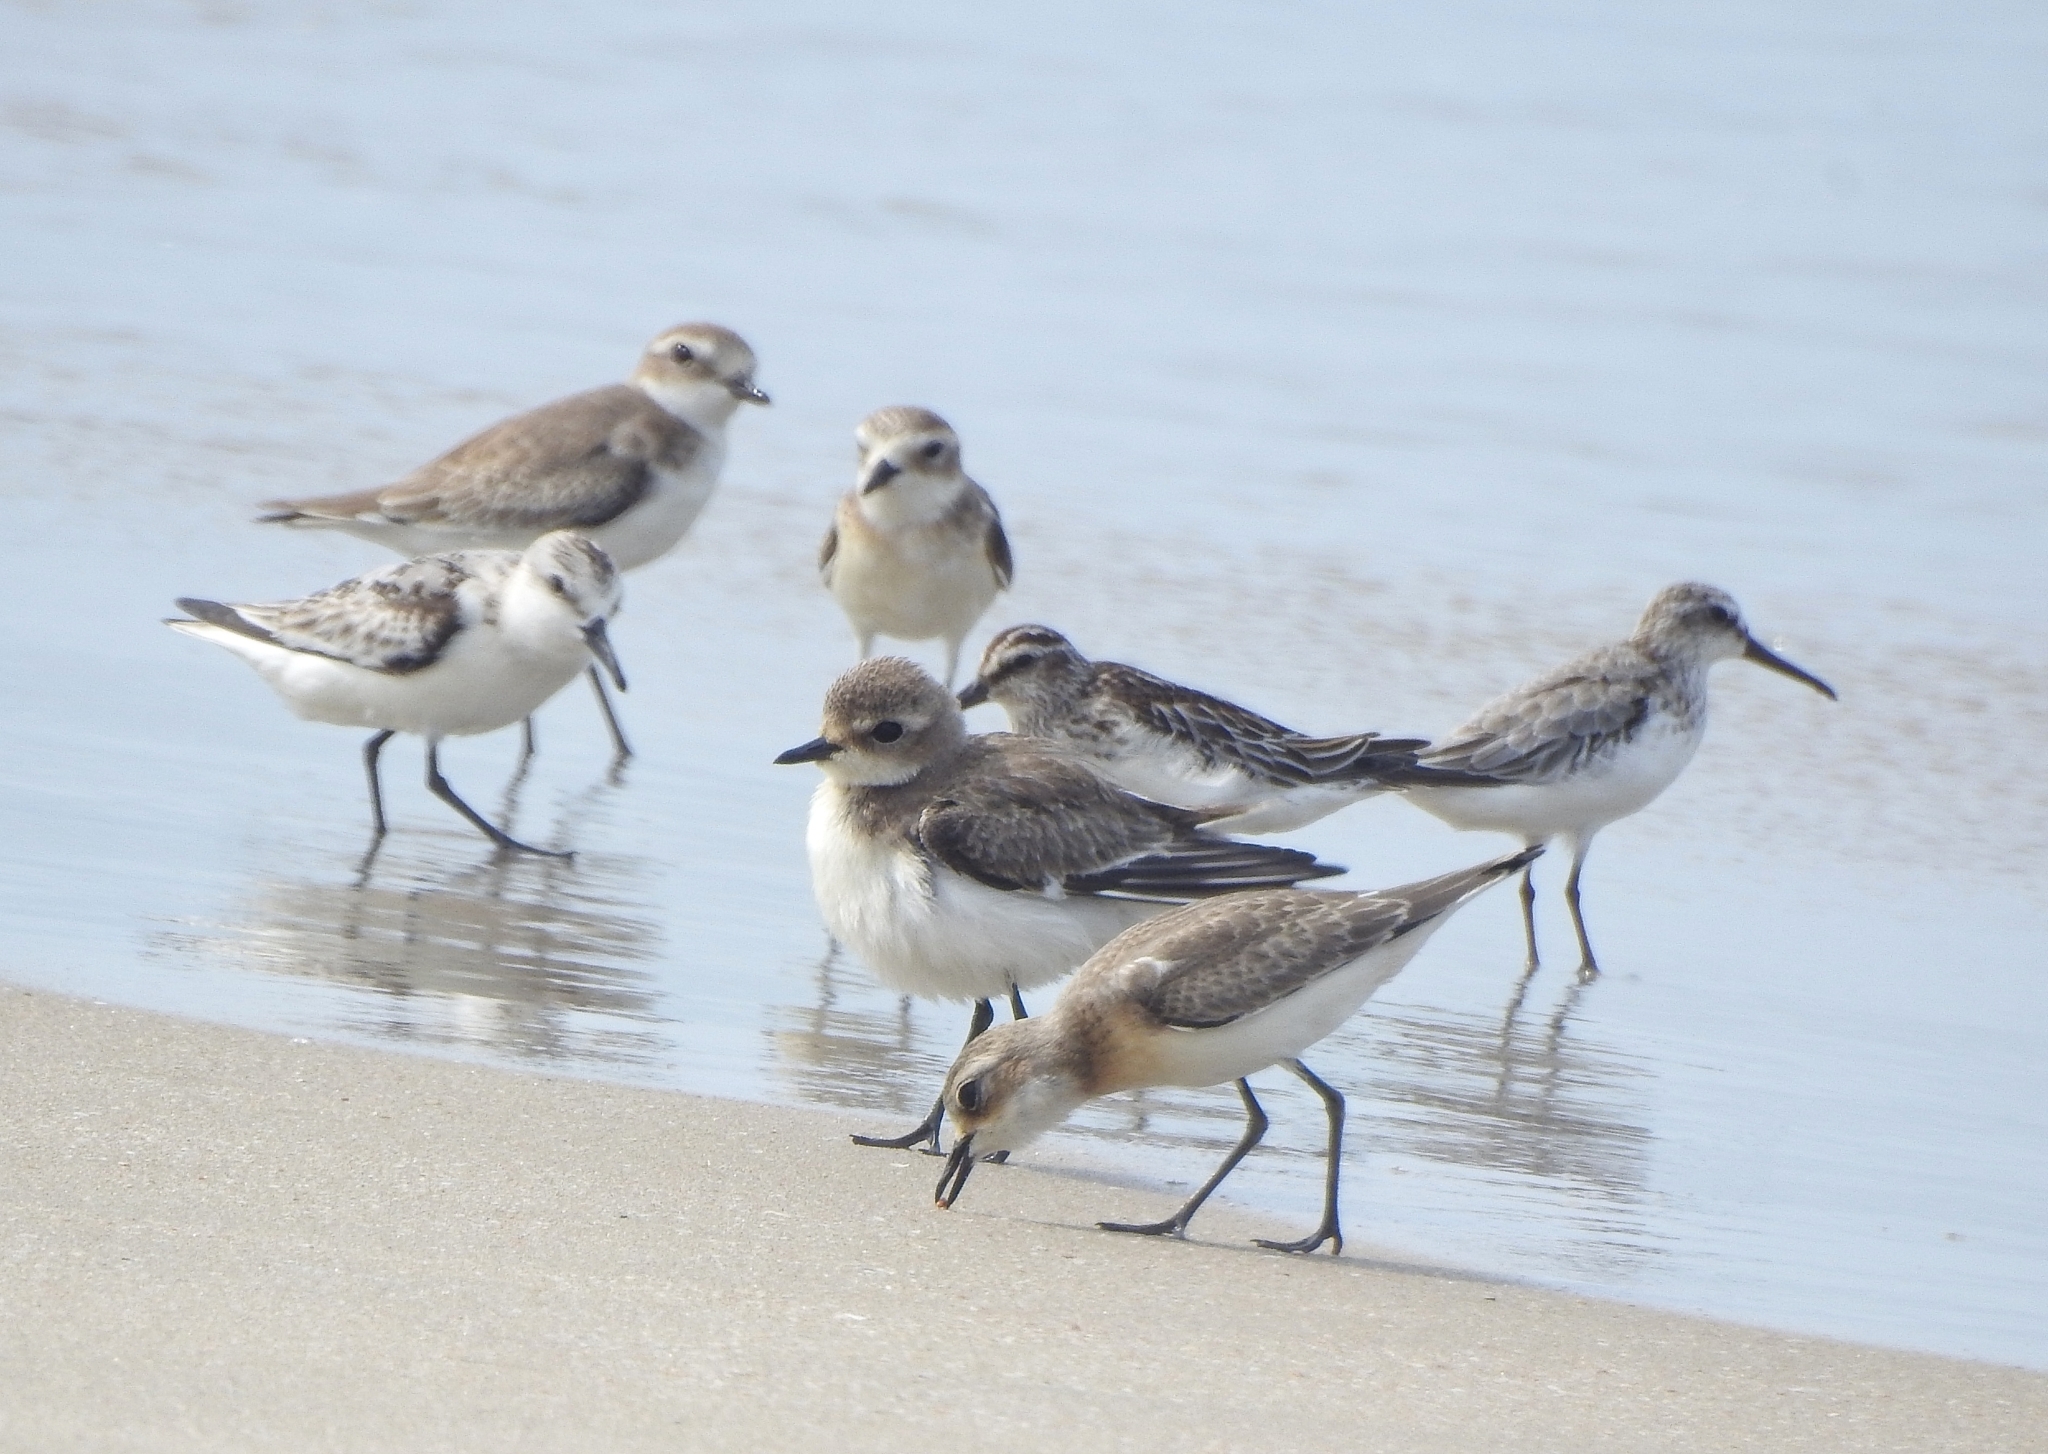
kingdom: Animalia
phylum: Chordata
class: Aves
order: Charadriiformes
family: Scolopacidae
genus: Calidris
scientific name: Calidris falcinellus
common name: Broad-billed sandpiper
